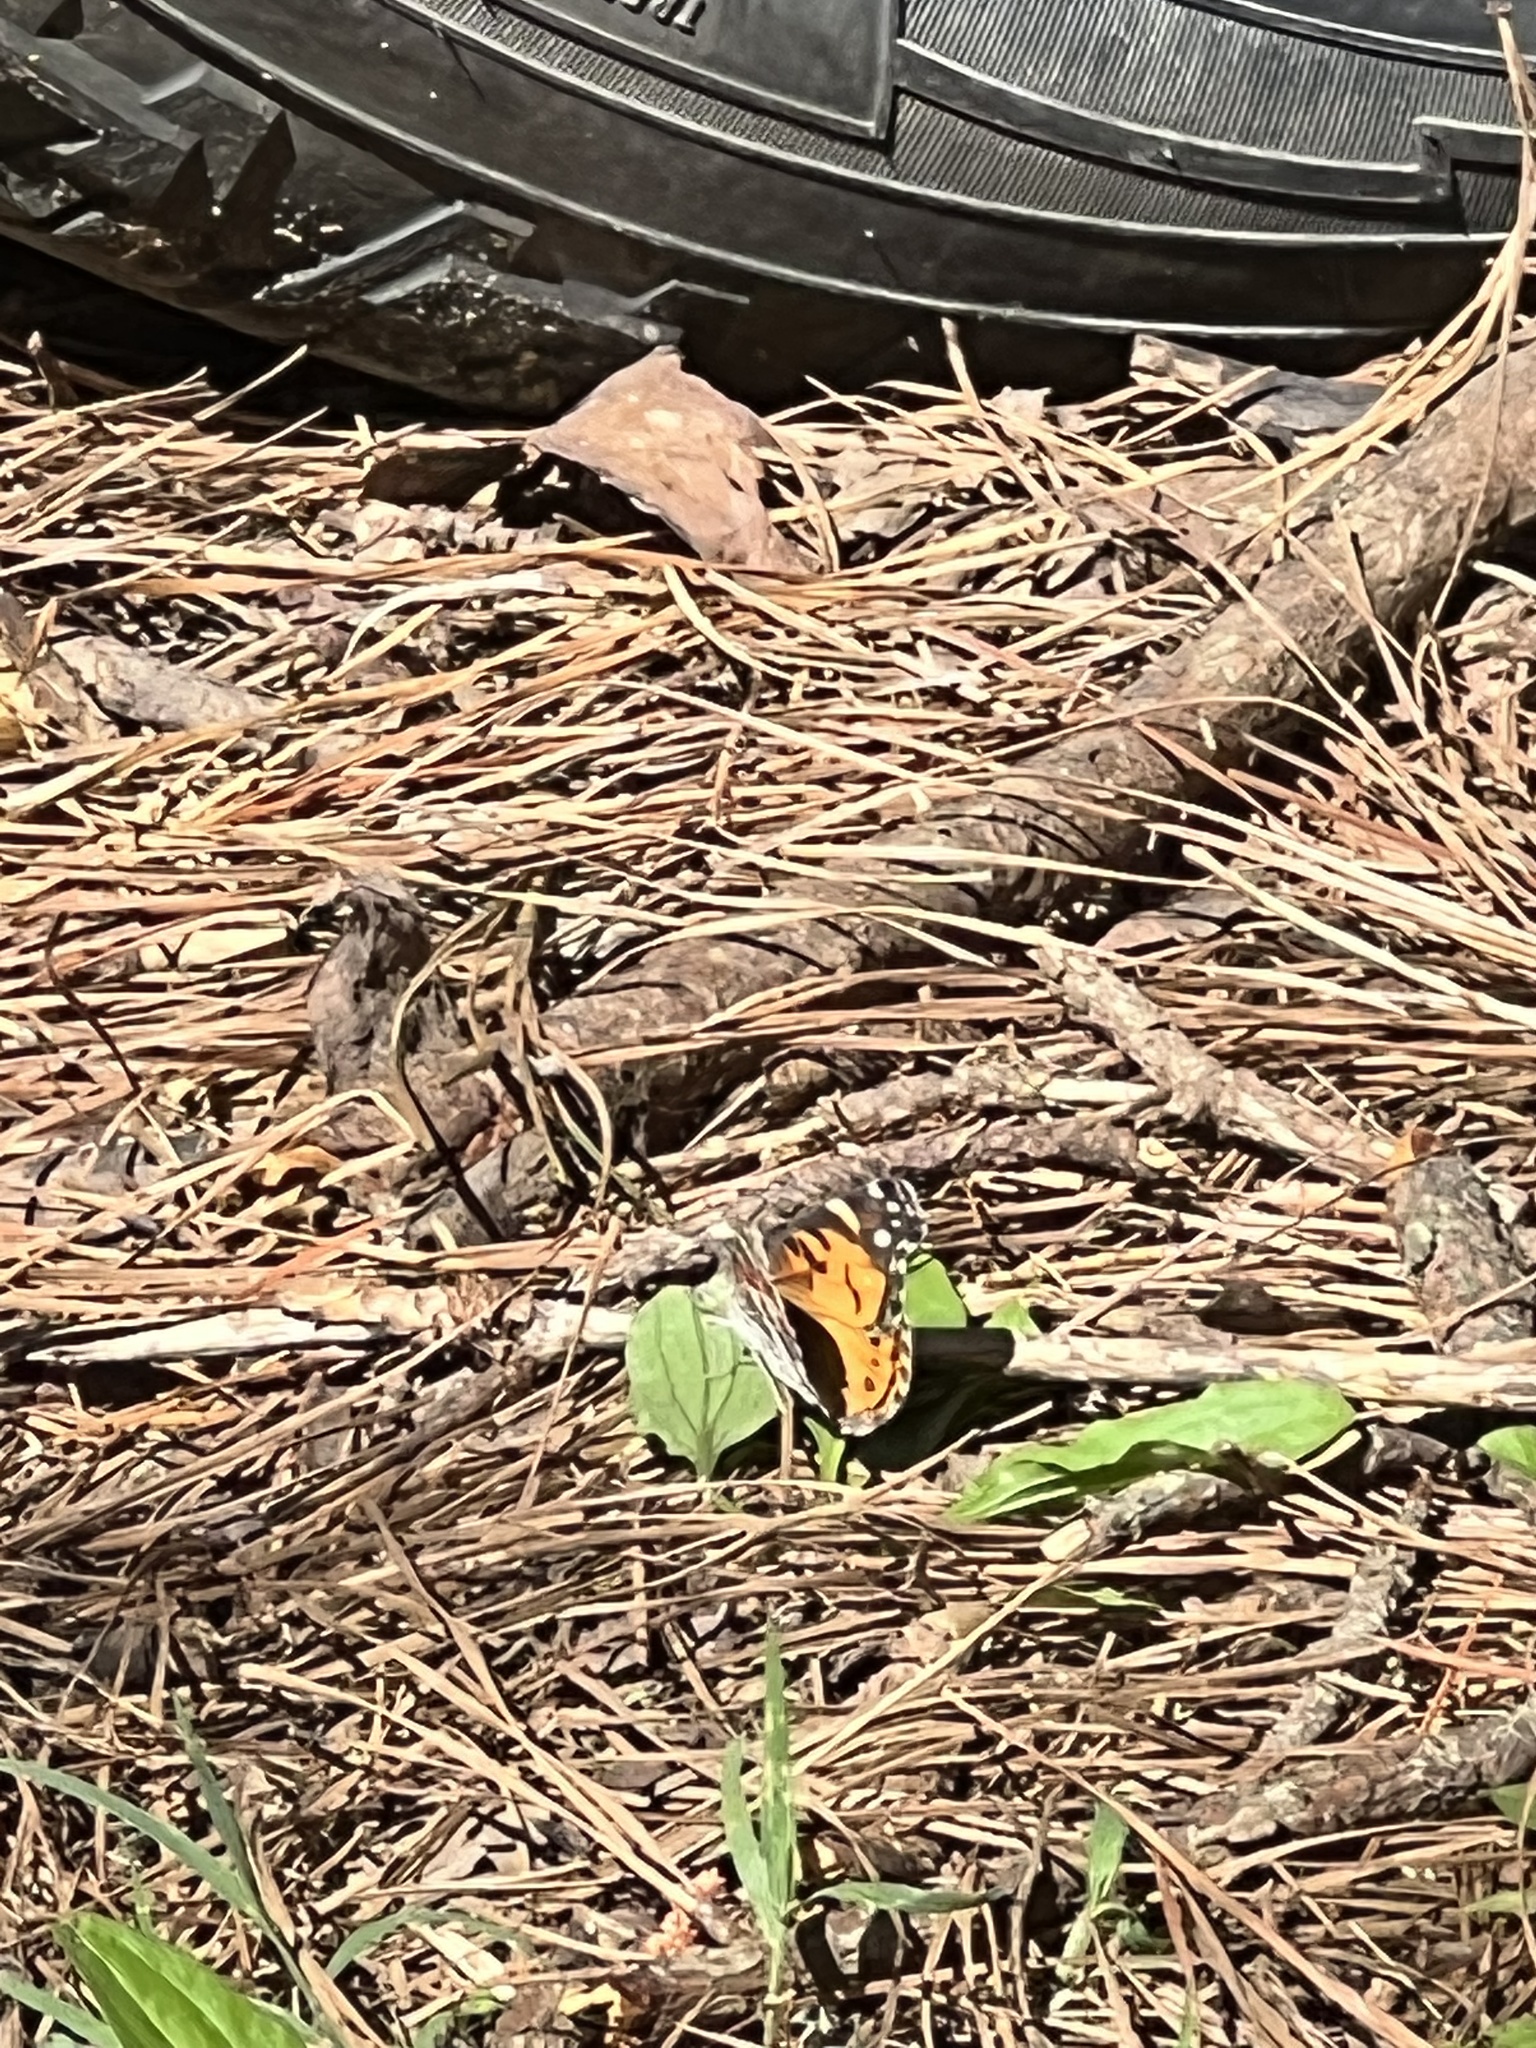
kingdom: Animalia
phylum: Arthropoda
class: Insecta
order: Lepidoptera
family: Nymphalidae
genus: Vanessa
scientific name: Vanessa virginiensis
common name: American lady
